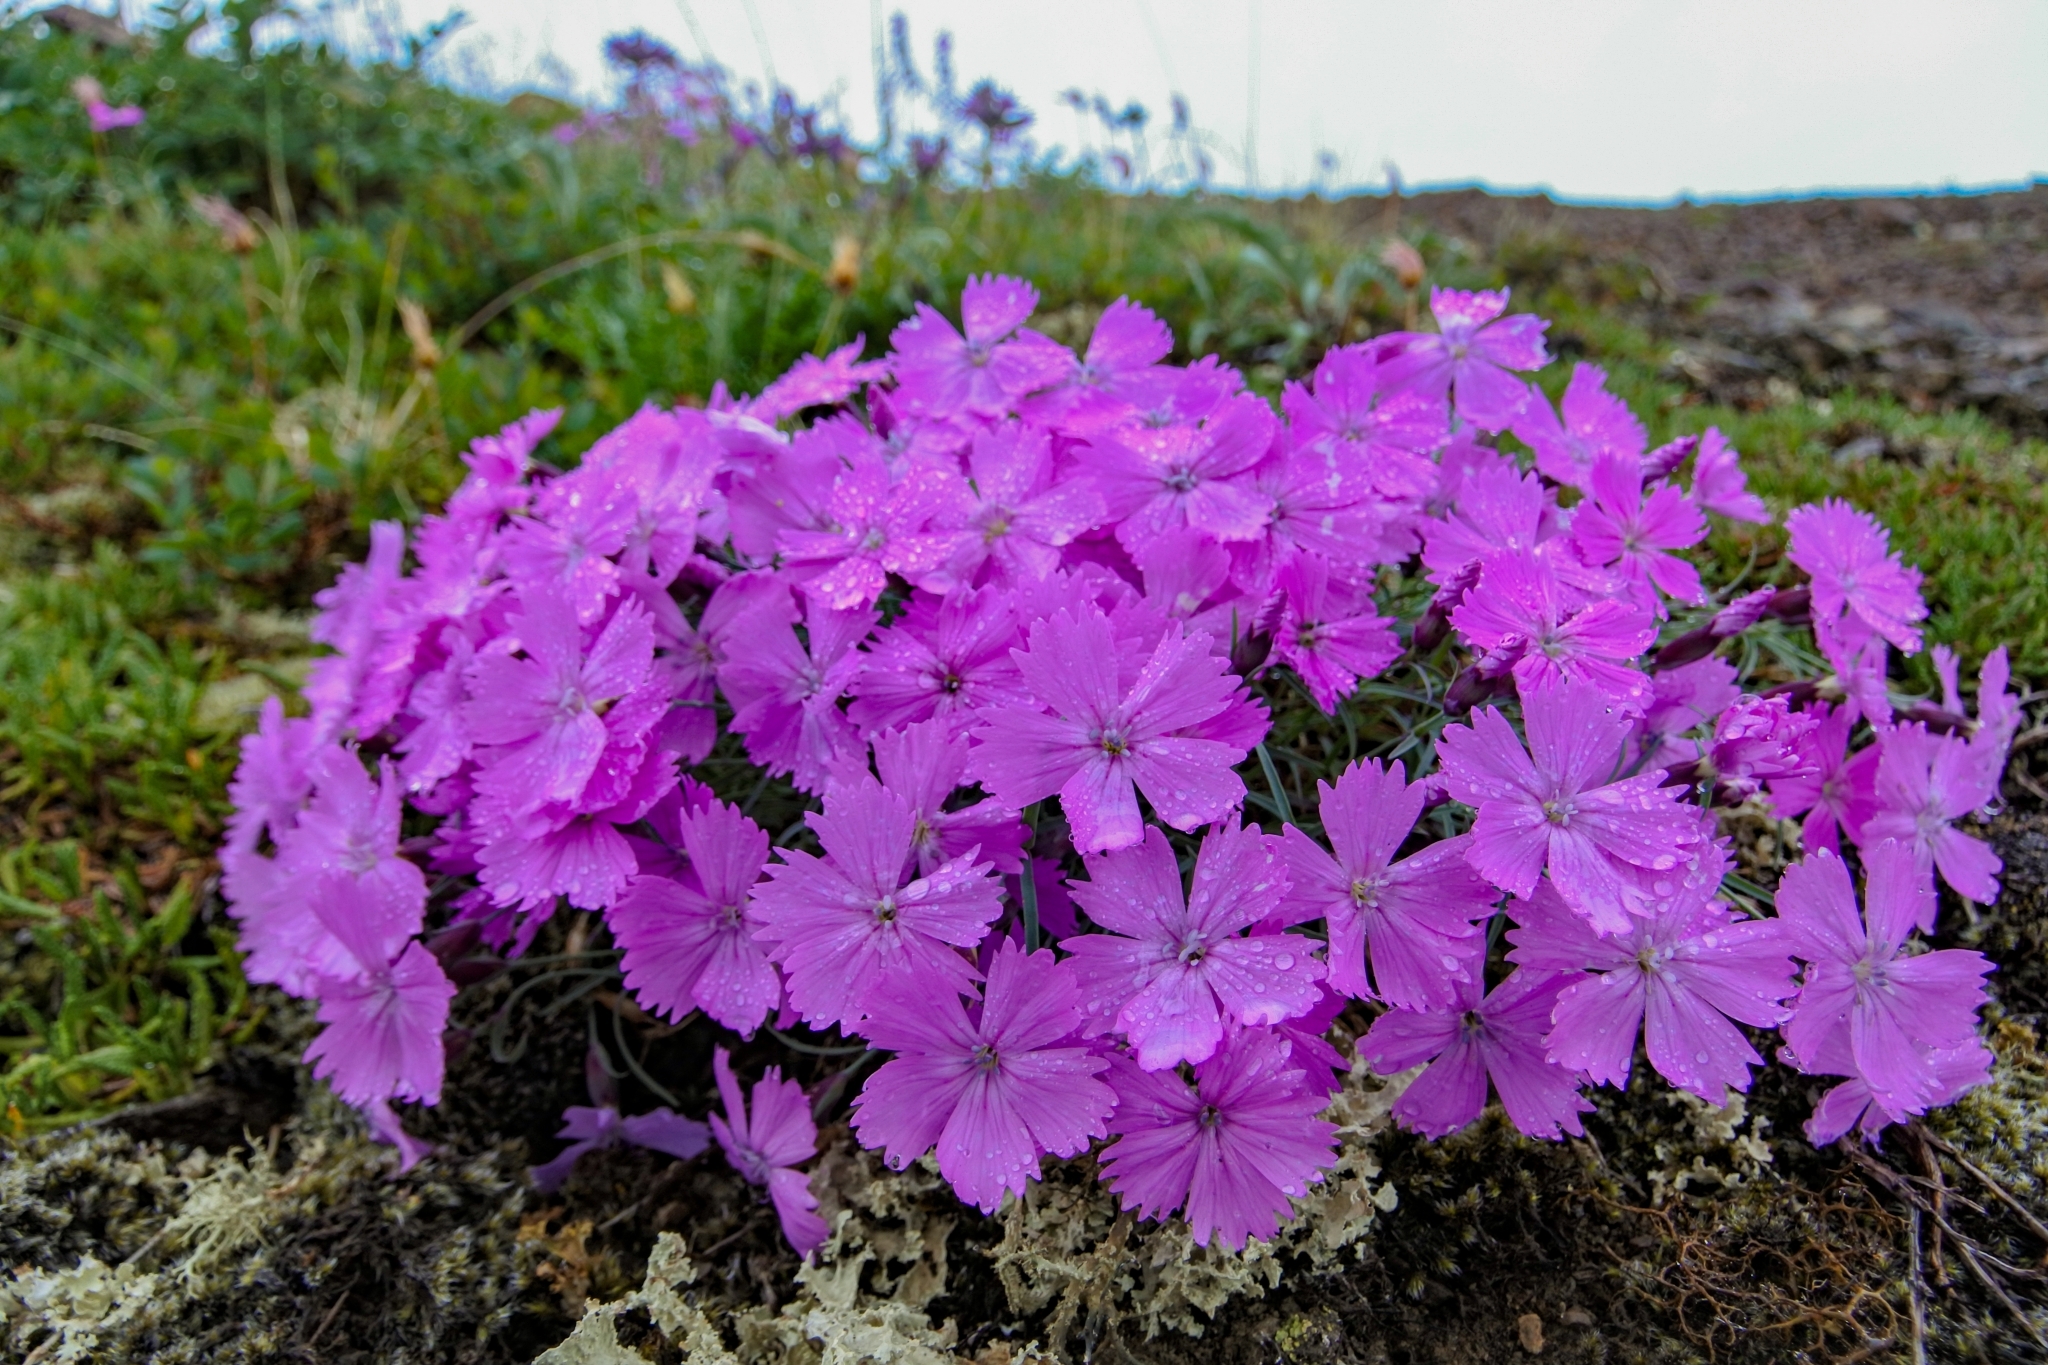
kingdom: Plantae
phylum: Tracheophyta
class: Magnoliopsida
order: Caryophyllales
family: Caryophyllaceae
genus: Dianthus
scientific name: Dianthus repens
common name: Northern pink
